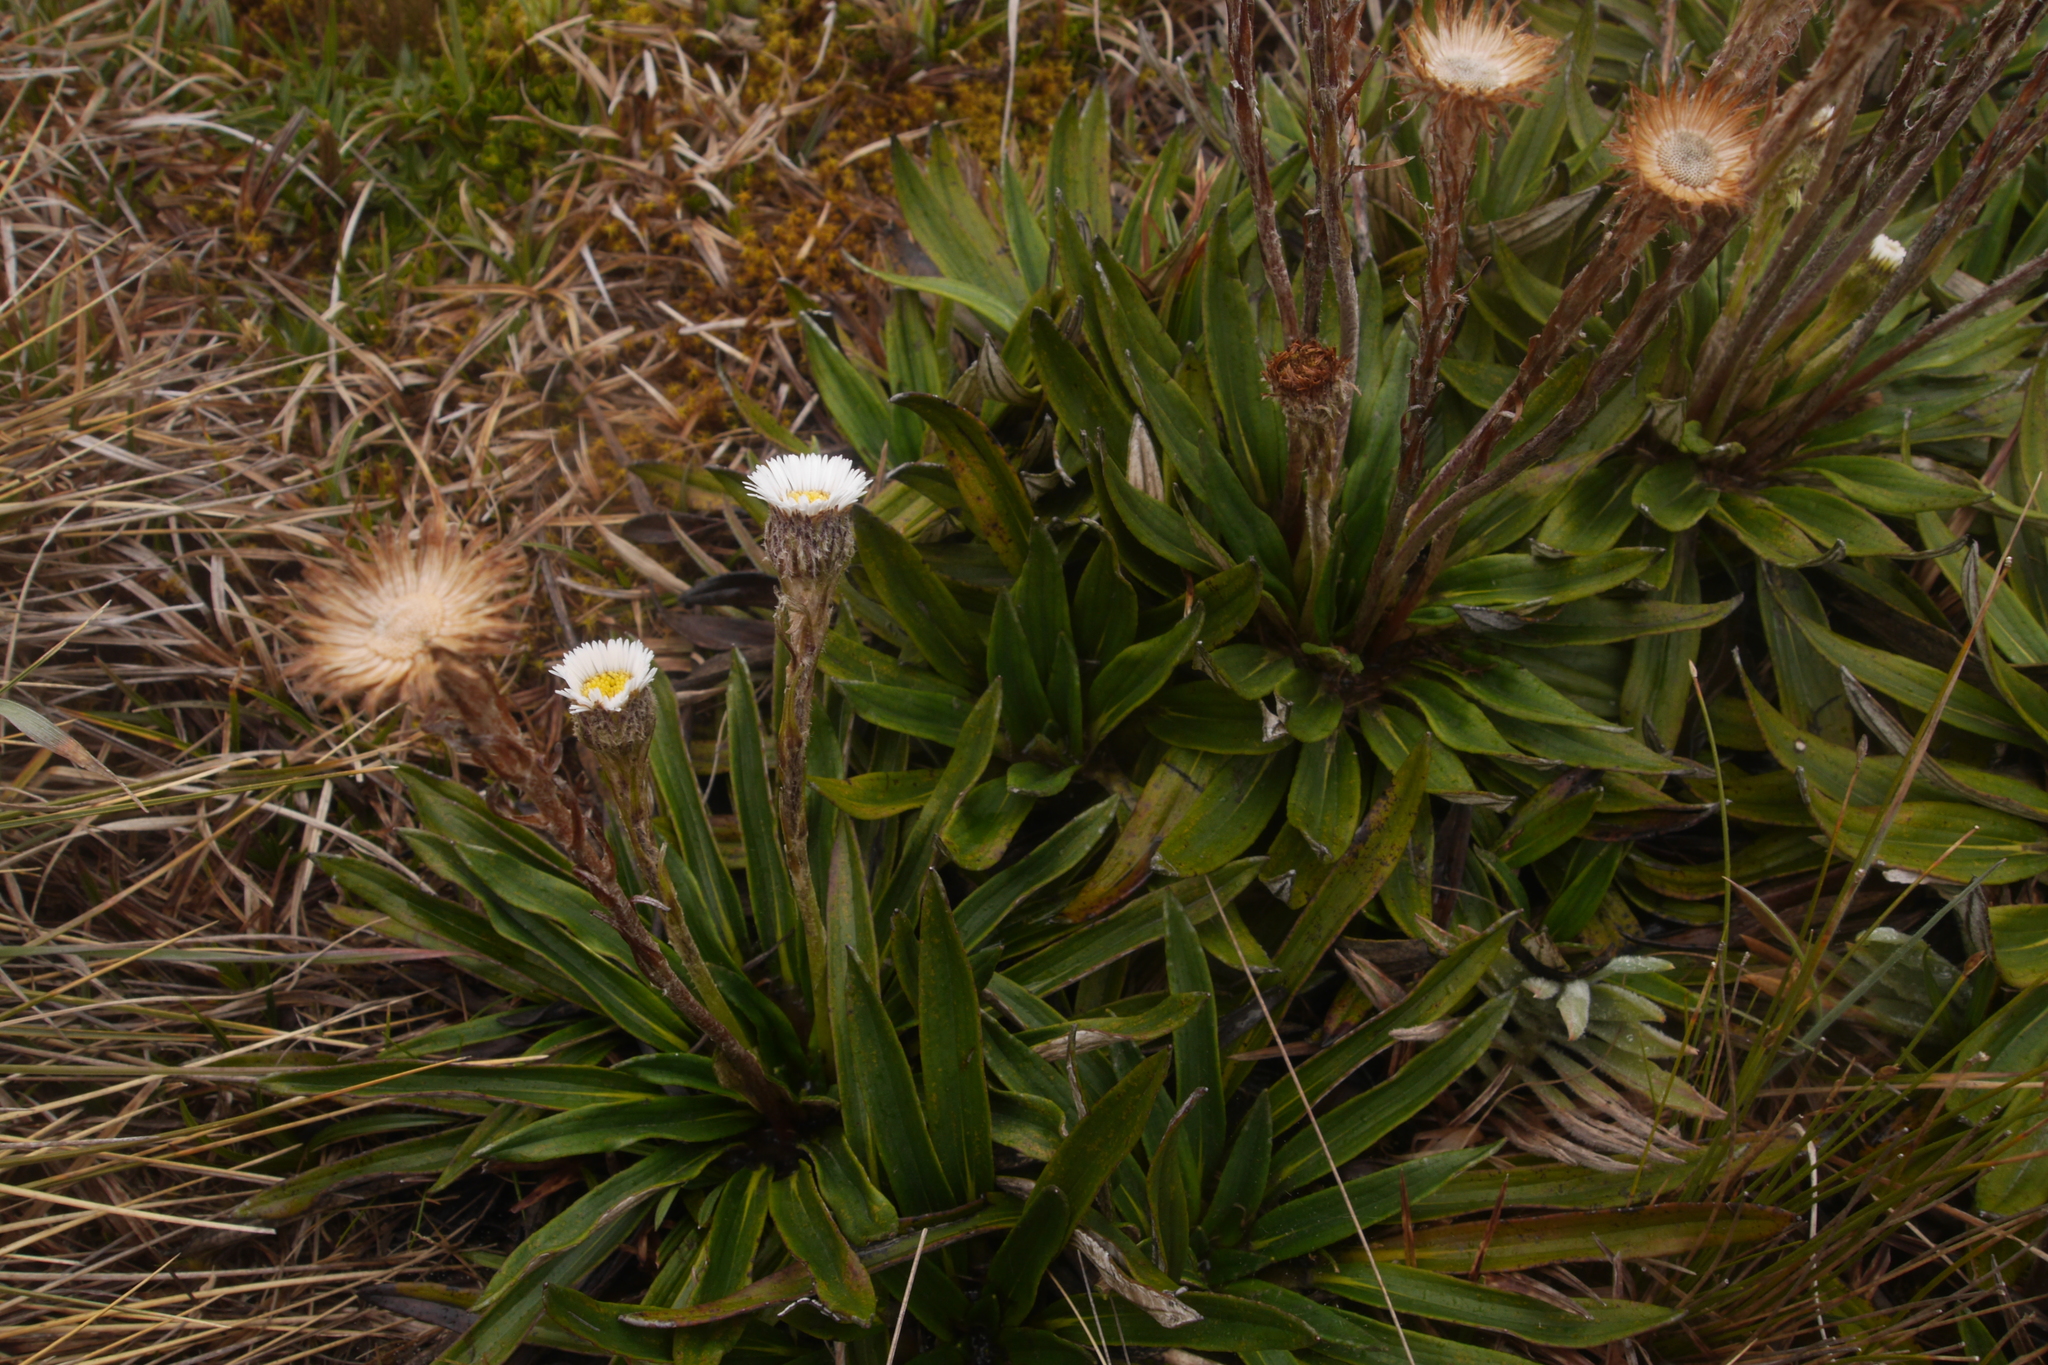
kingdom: Plantae
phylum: Tracheophyta
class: Magnoliopsida
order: Asterales
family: Asteraceae
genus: Oritrophium
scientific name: Oritrophium peruvianum
